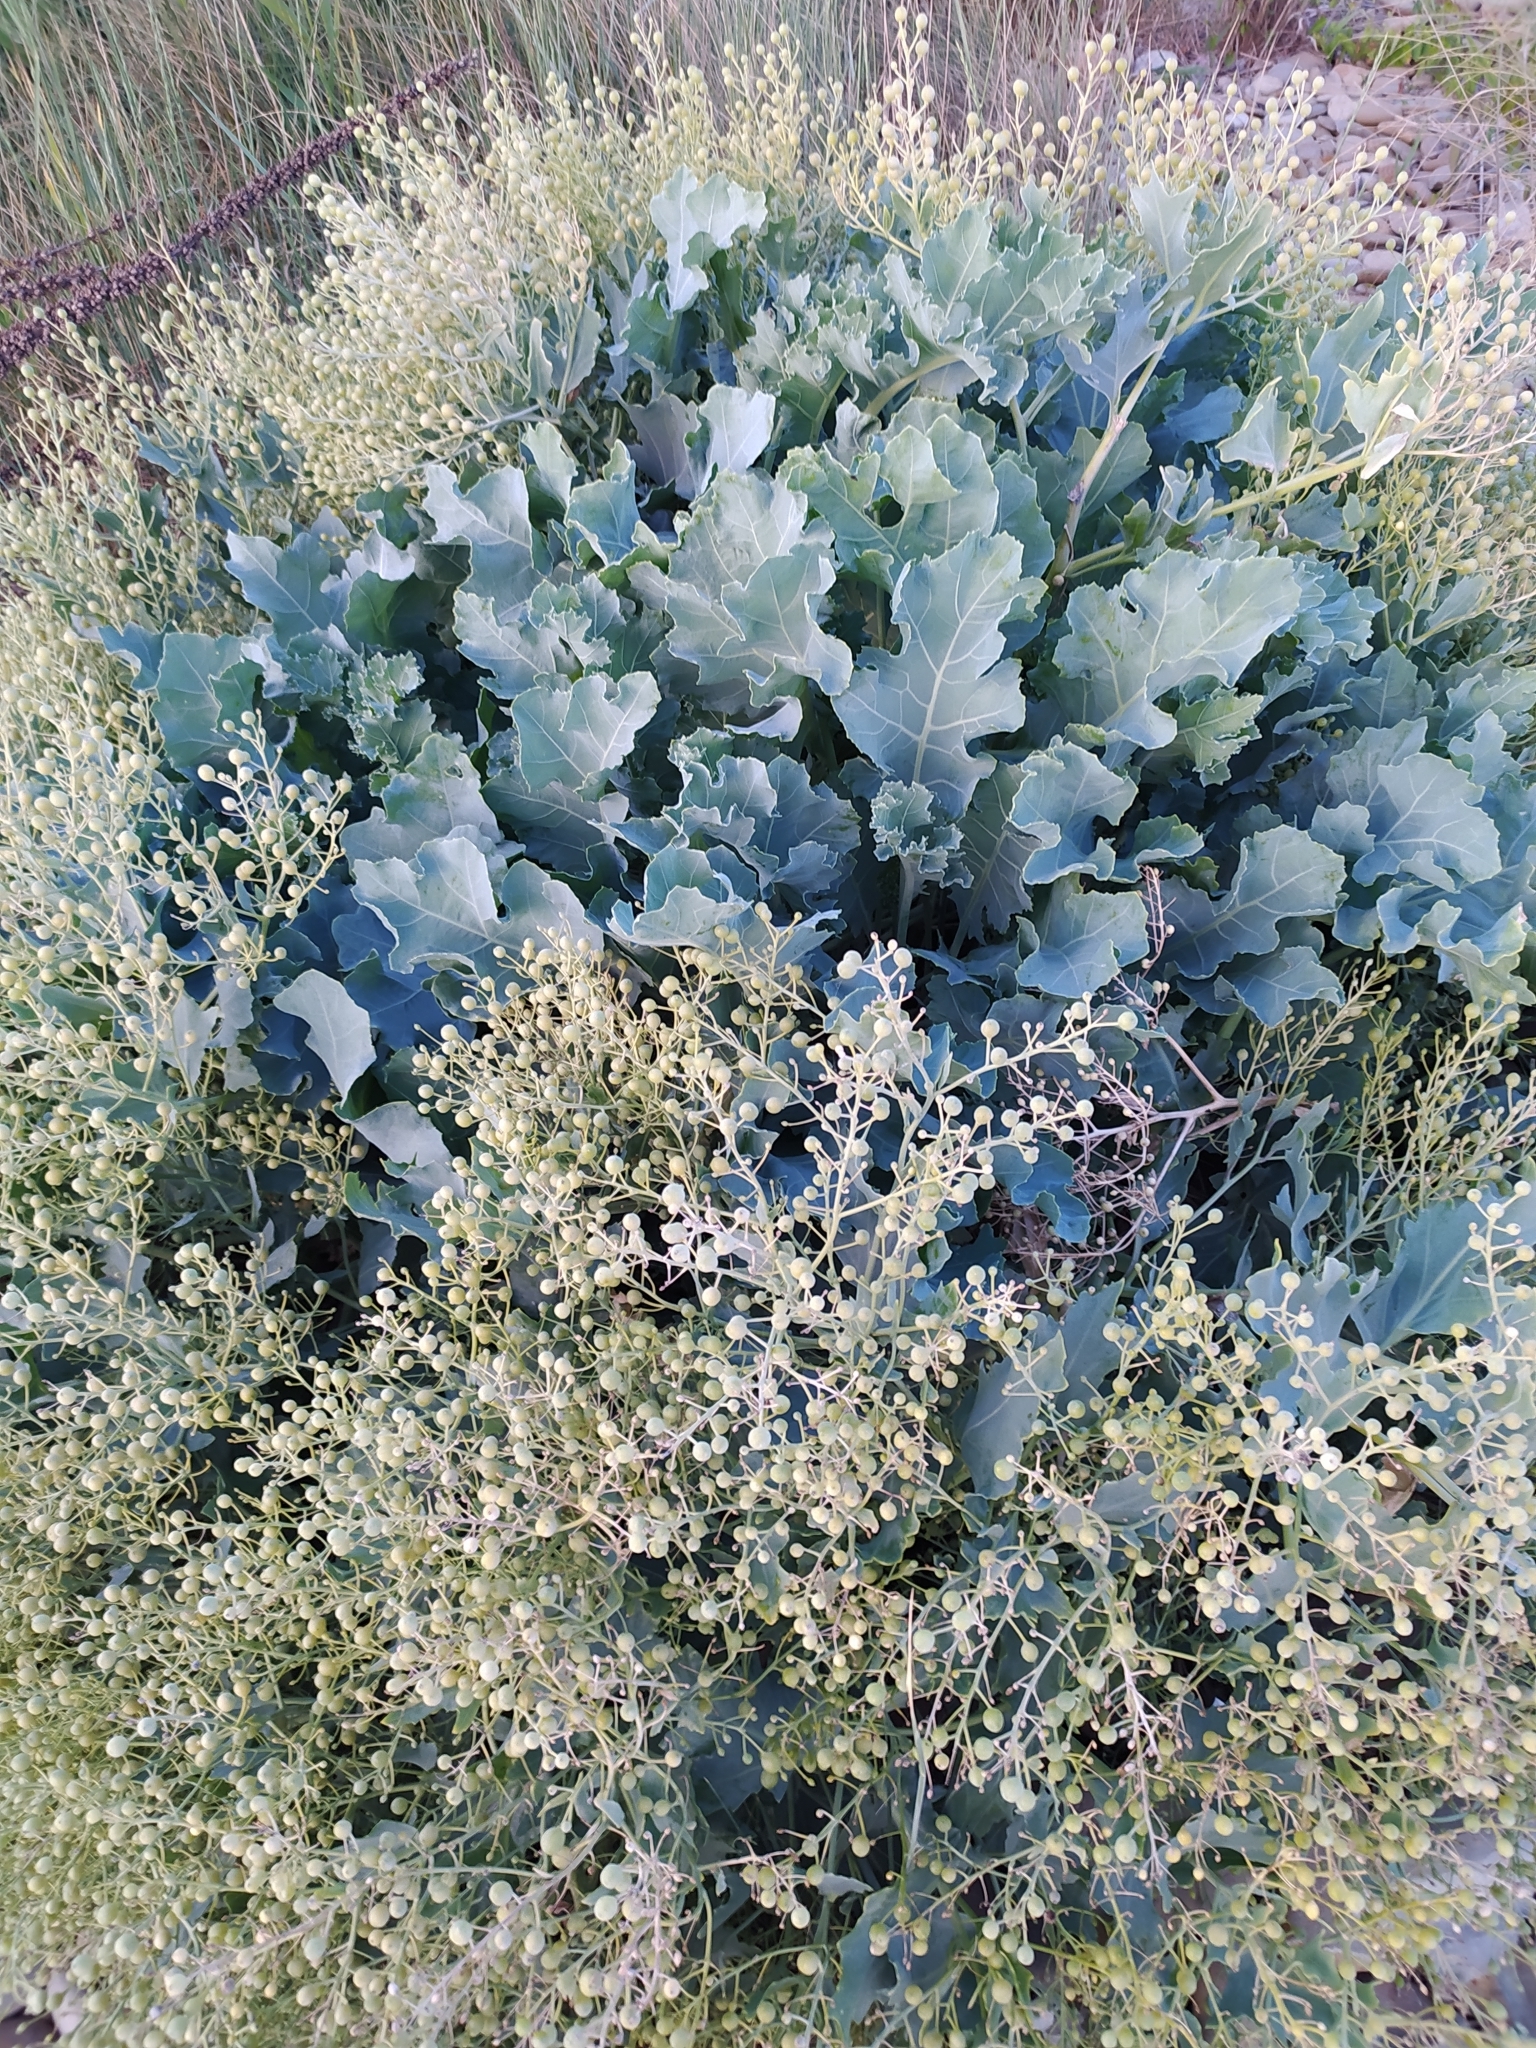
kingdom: Plantae
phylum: Tracheophyta
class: Magnoliopsida
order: Brassicales
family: Brassicaceae
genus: Crambe
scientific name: Crambe maritima
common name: Sea-kale
